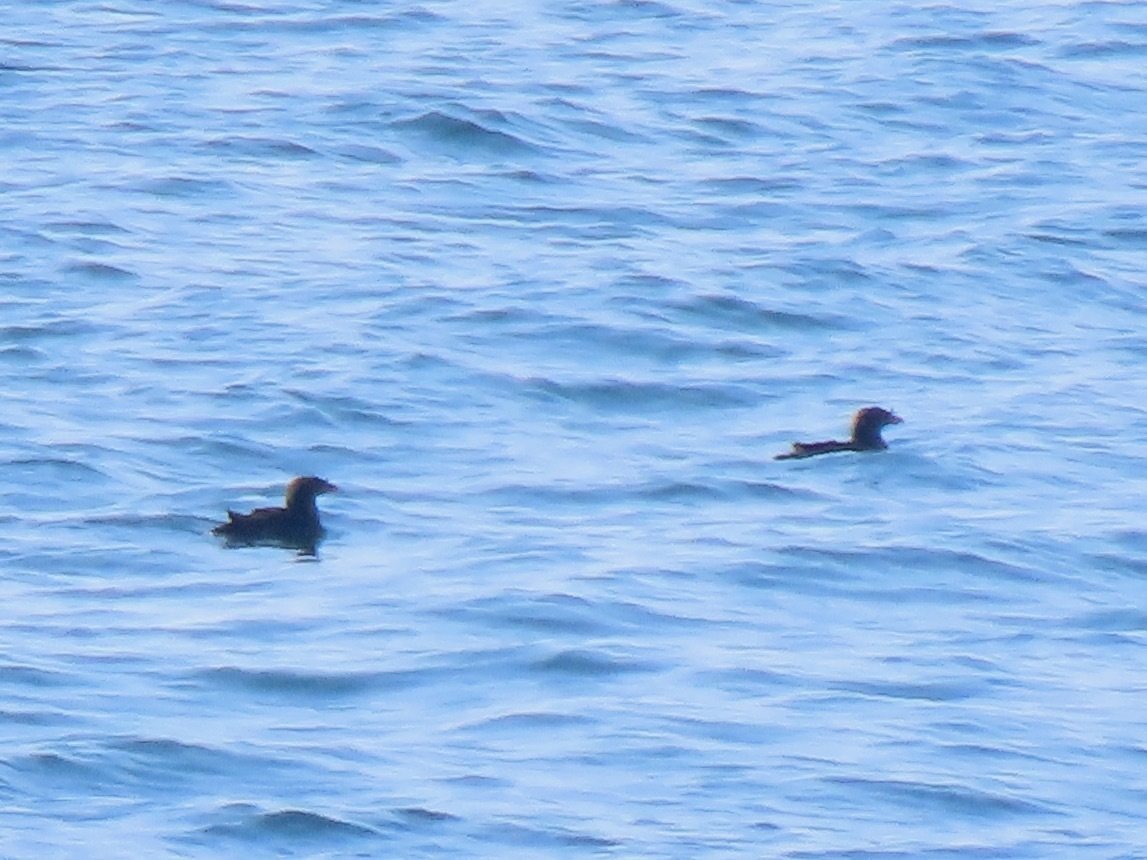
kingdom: Animalia
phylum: Chordata
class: Aves
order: Charadriiformes
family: Alcidae
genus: Cerorhinca
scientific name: Cerorhinca monocerata
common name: Rhinoceros auklet
